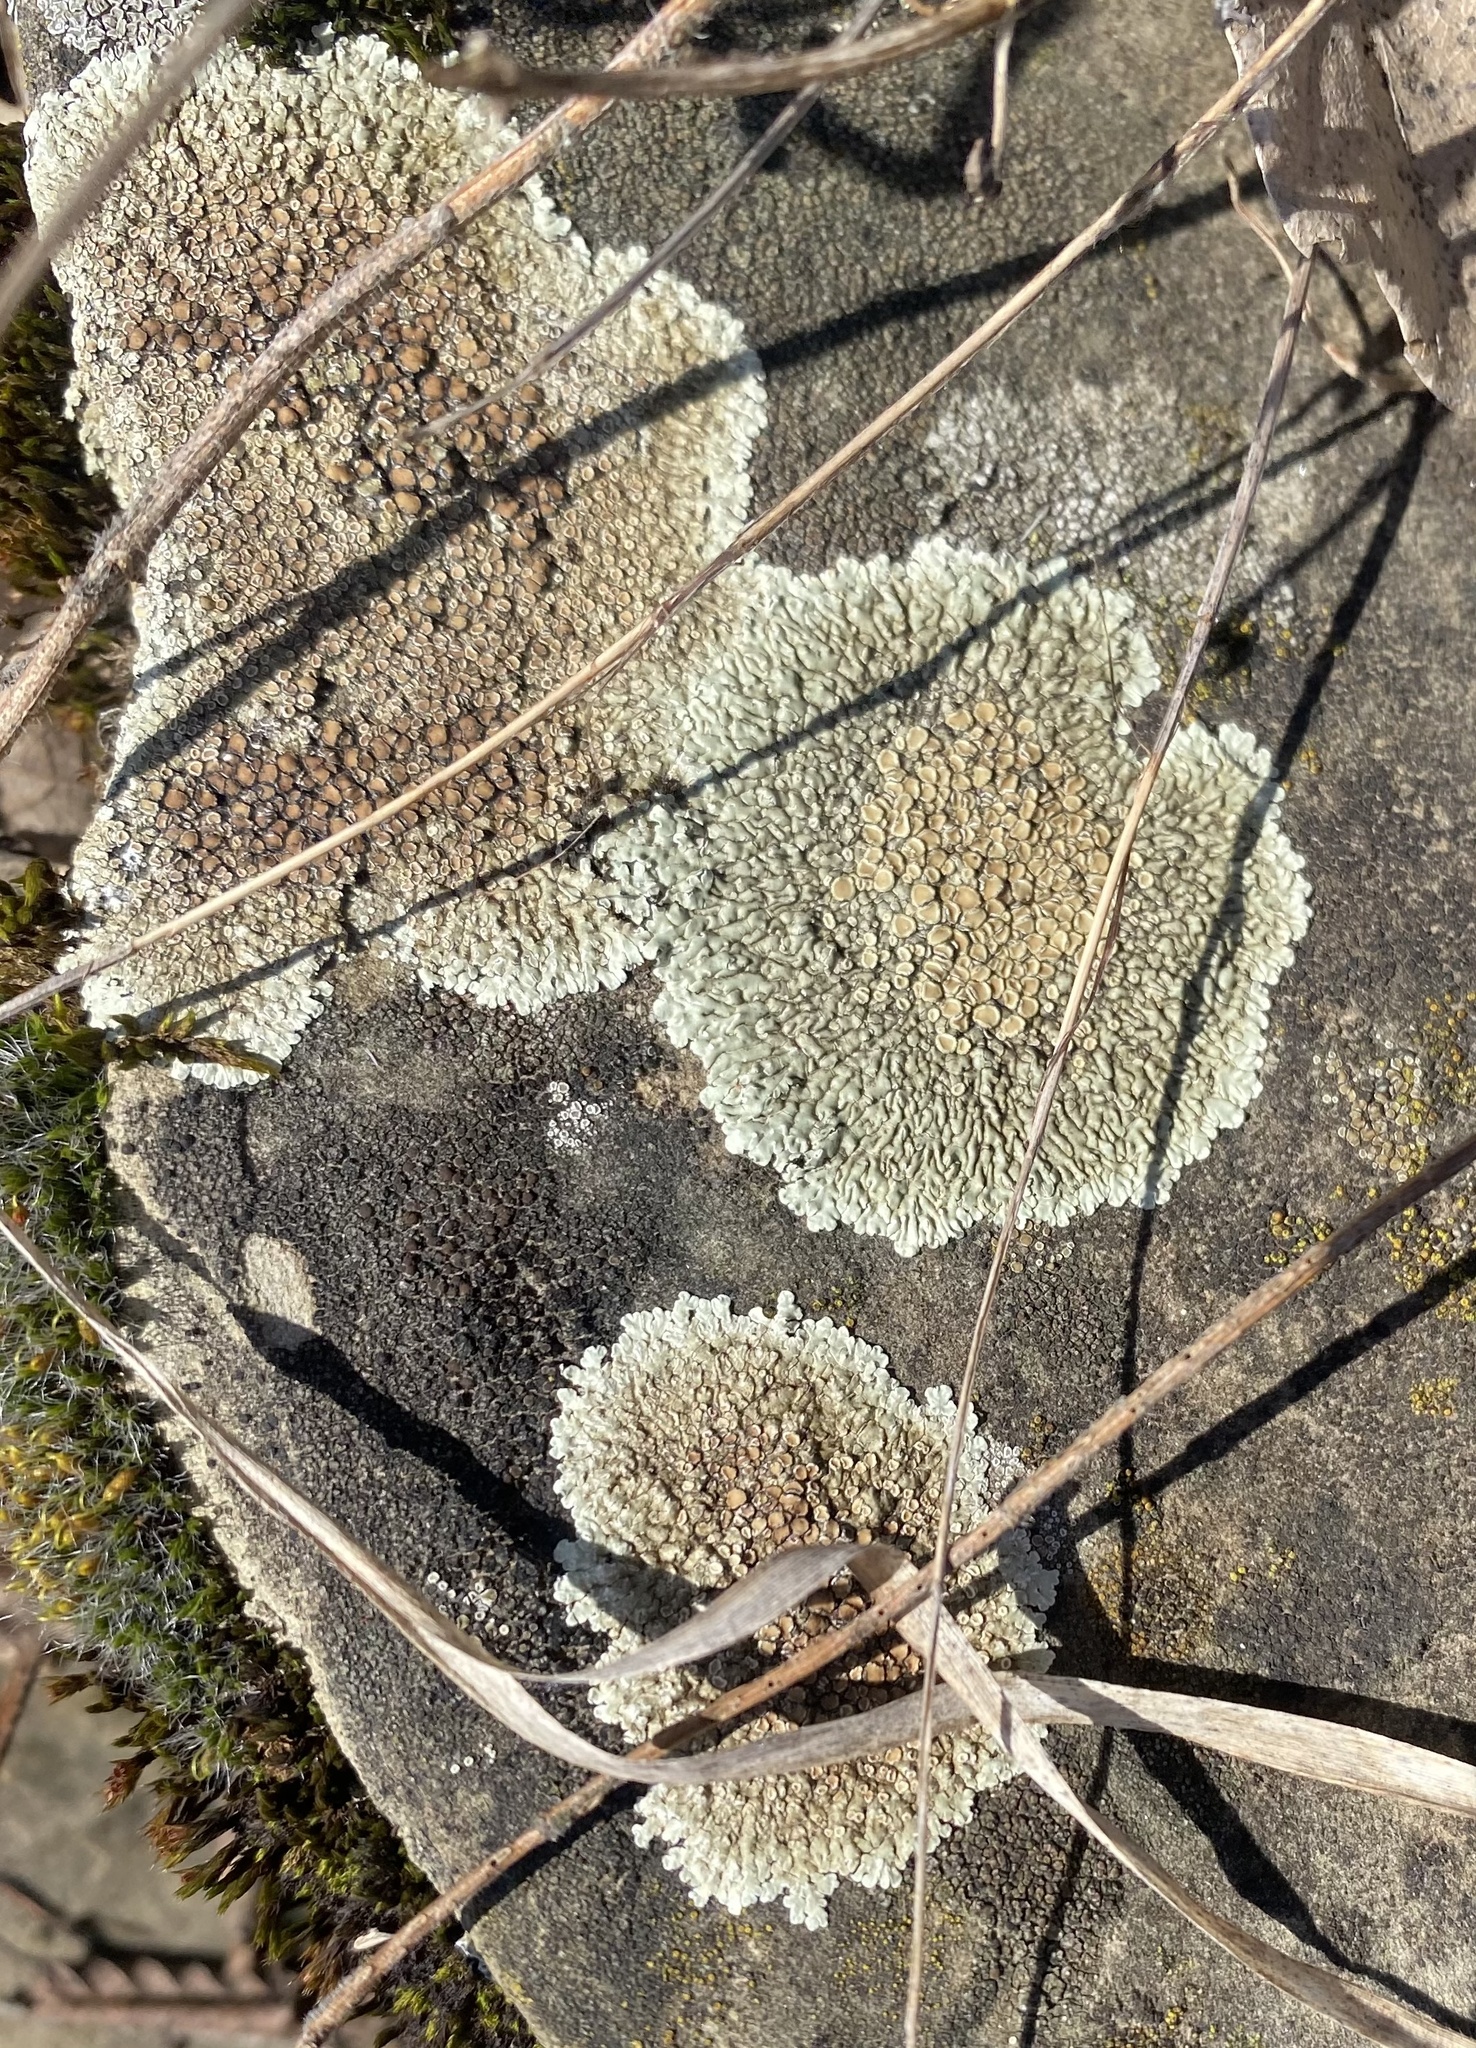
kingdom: Fungi
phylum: Ascomycota
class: Lecanoromycetes
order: Lecanorales
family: Lecanoraceae
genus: Protoparmeliopsis
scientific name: Protoparmeliopsis muralis
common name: Stonewall rim lichen
